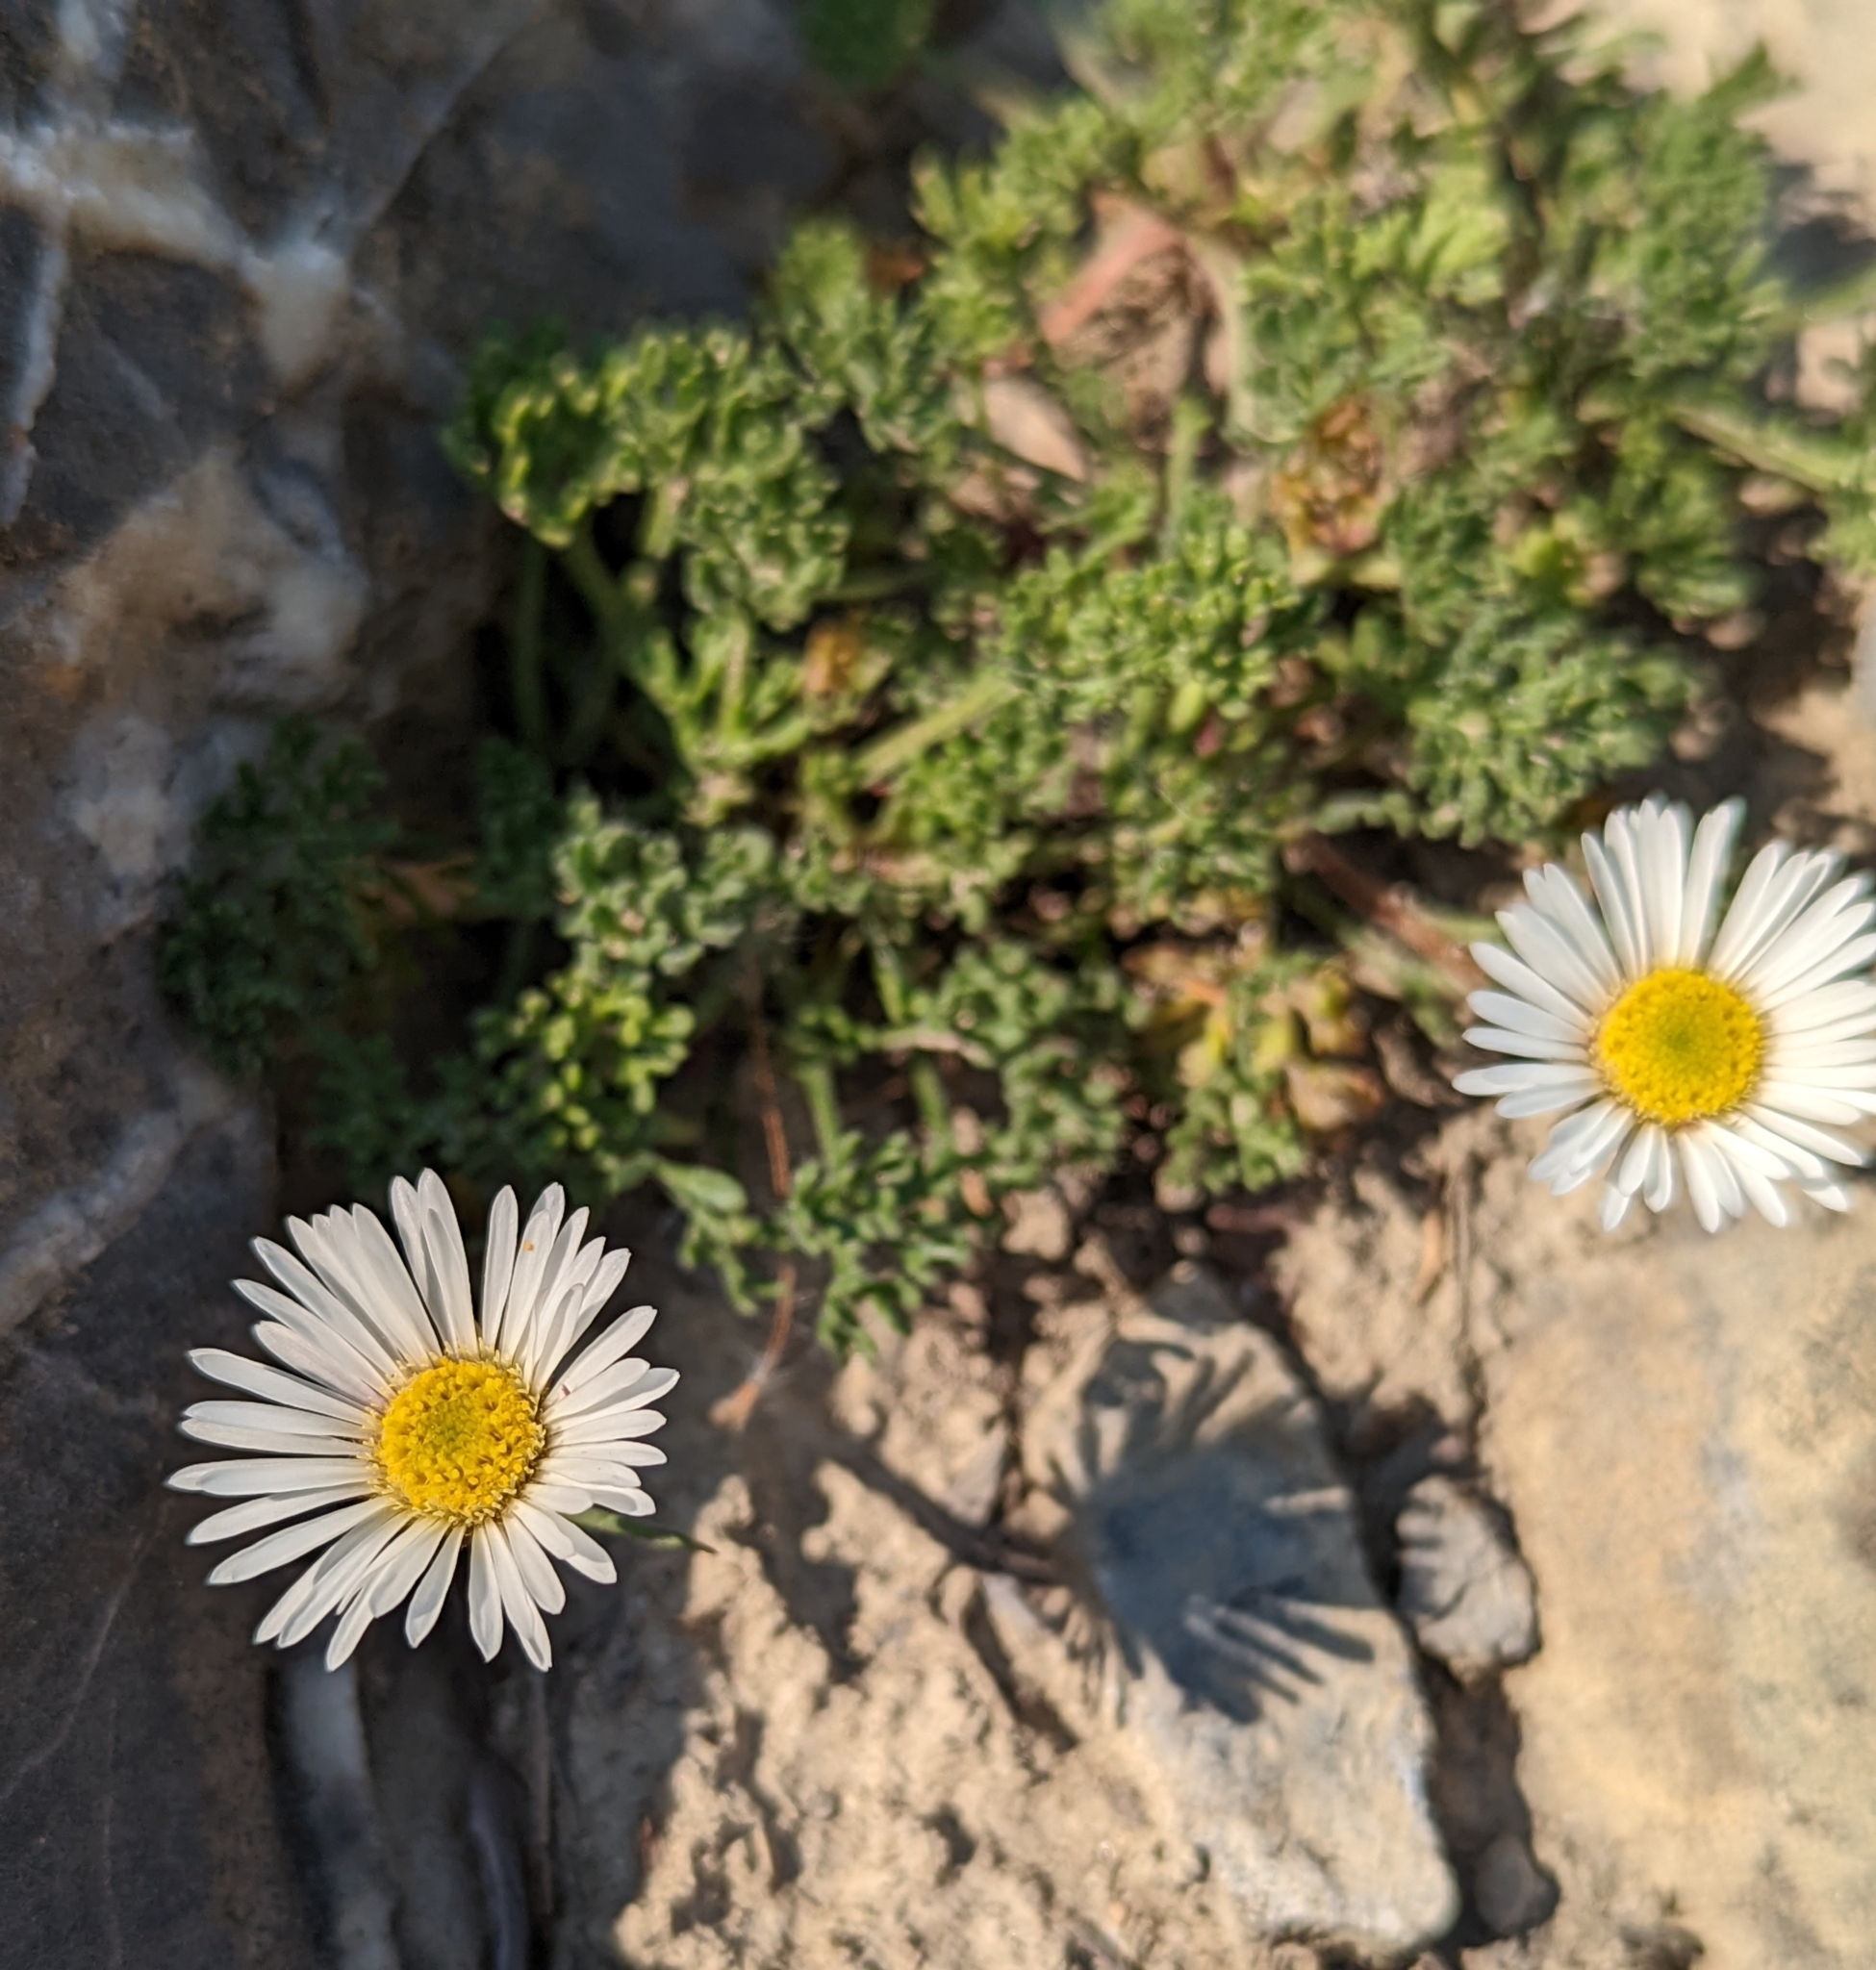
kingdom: Plantae
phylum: Tracheophyta
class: Magnoliopsida
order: Asterales
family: Asteraceae
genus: Erigeron
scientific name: Erigeron compositus
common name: Dwarf mountain fleabane
